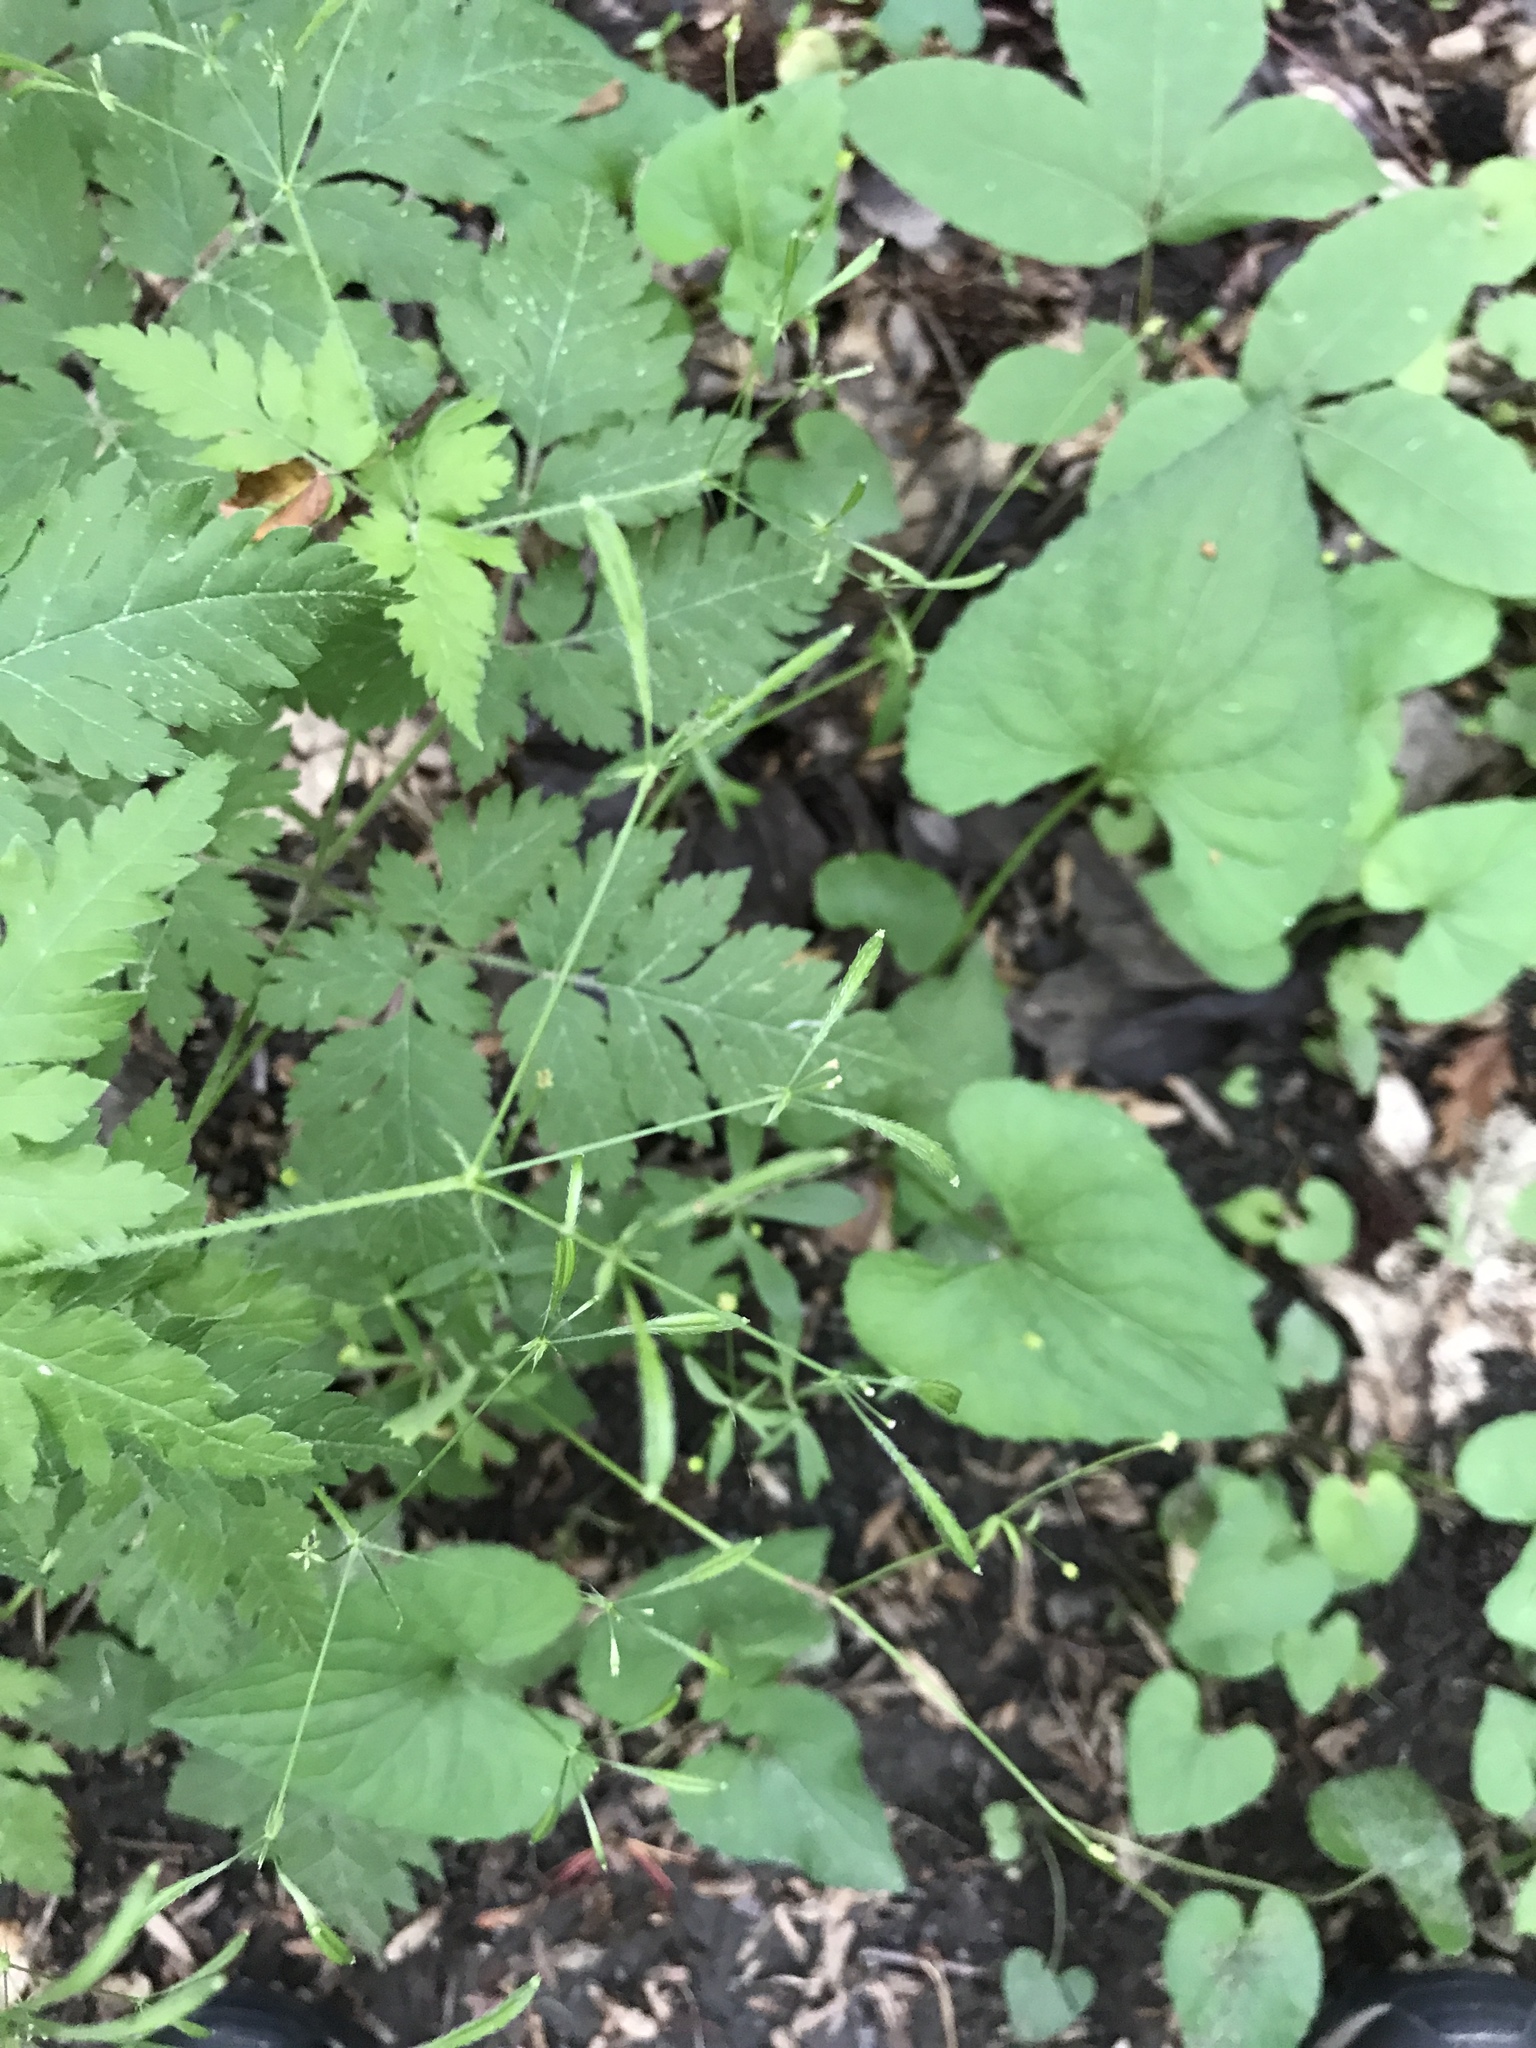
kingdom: Plantae
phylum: Tracheophyta
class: Magnoliopsida
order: Apiales
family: Apiaceae
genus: Osmorhiza
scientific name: Osmorhiza claytonii
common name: Hairy sweet cicely
